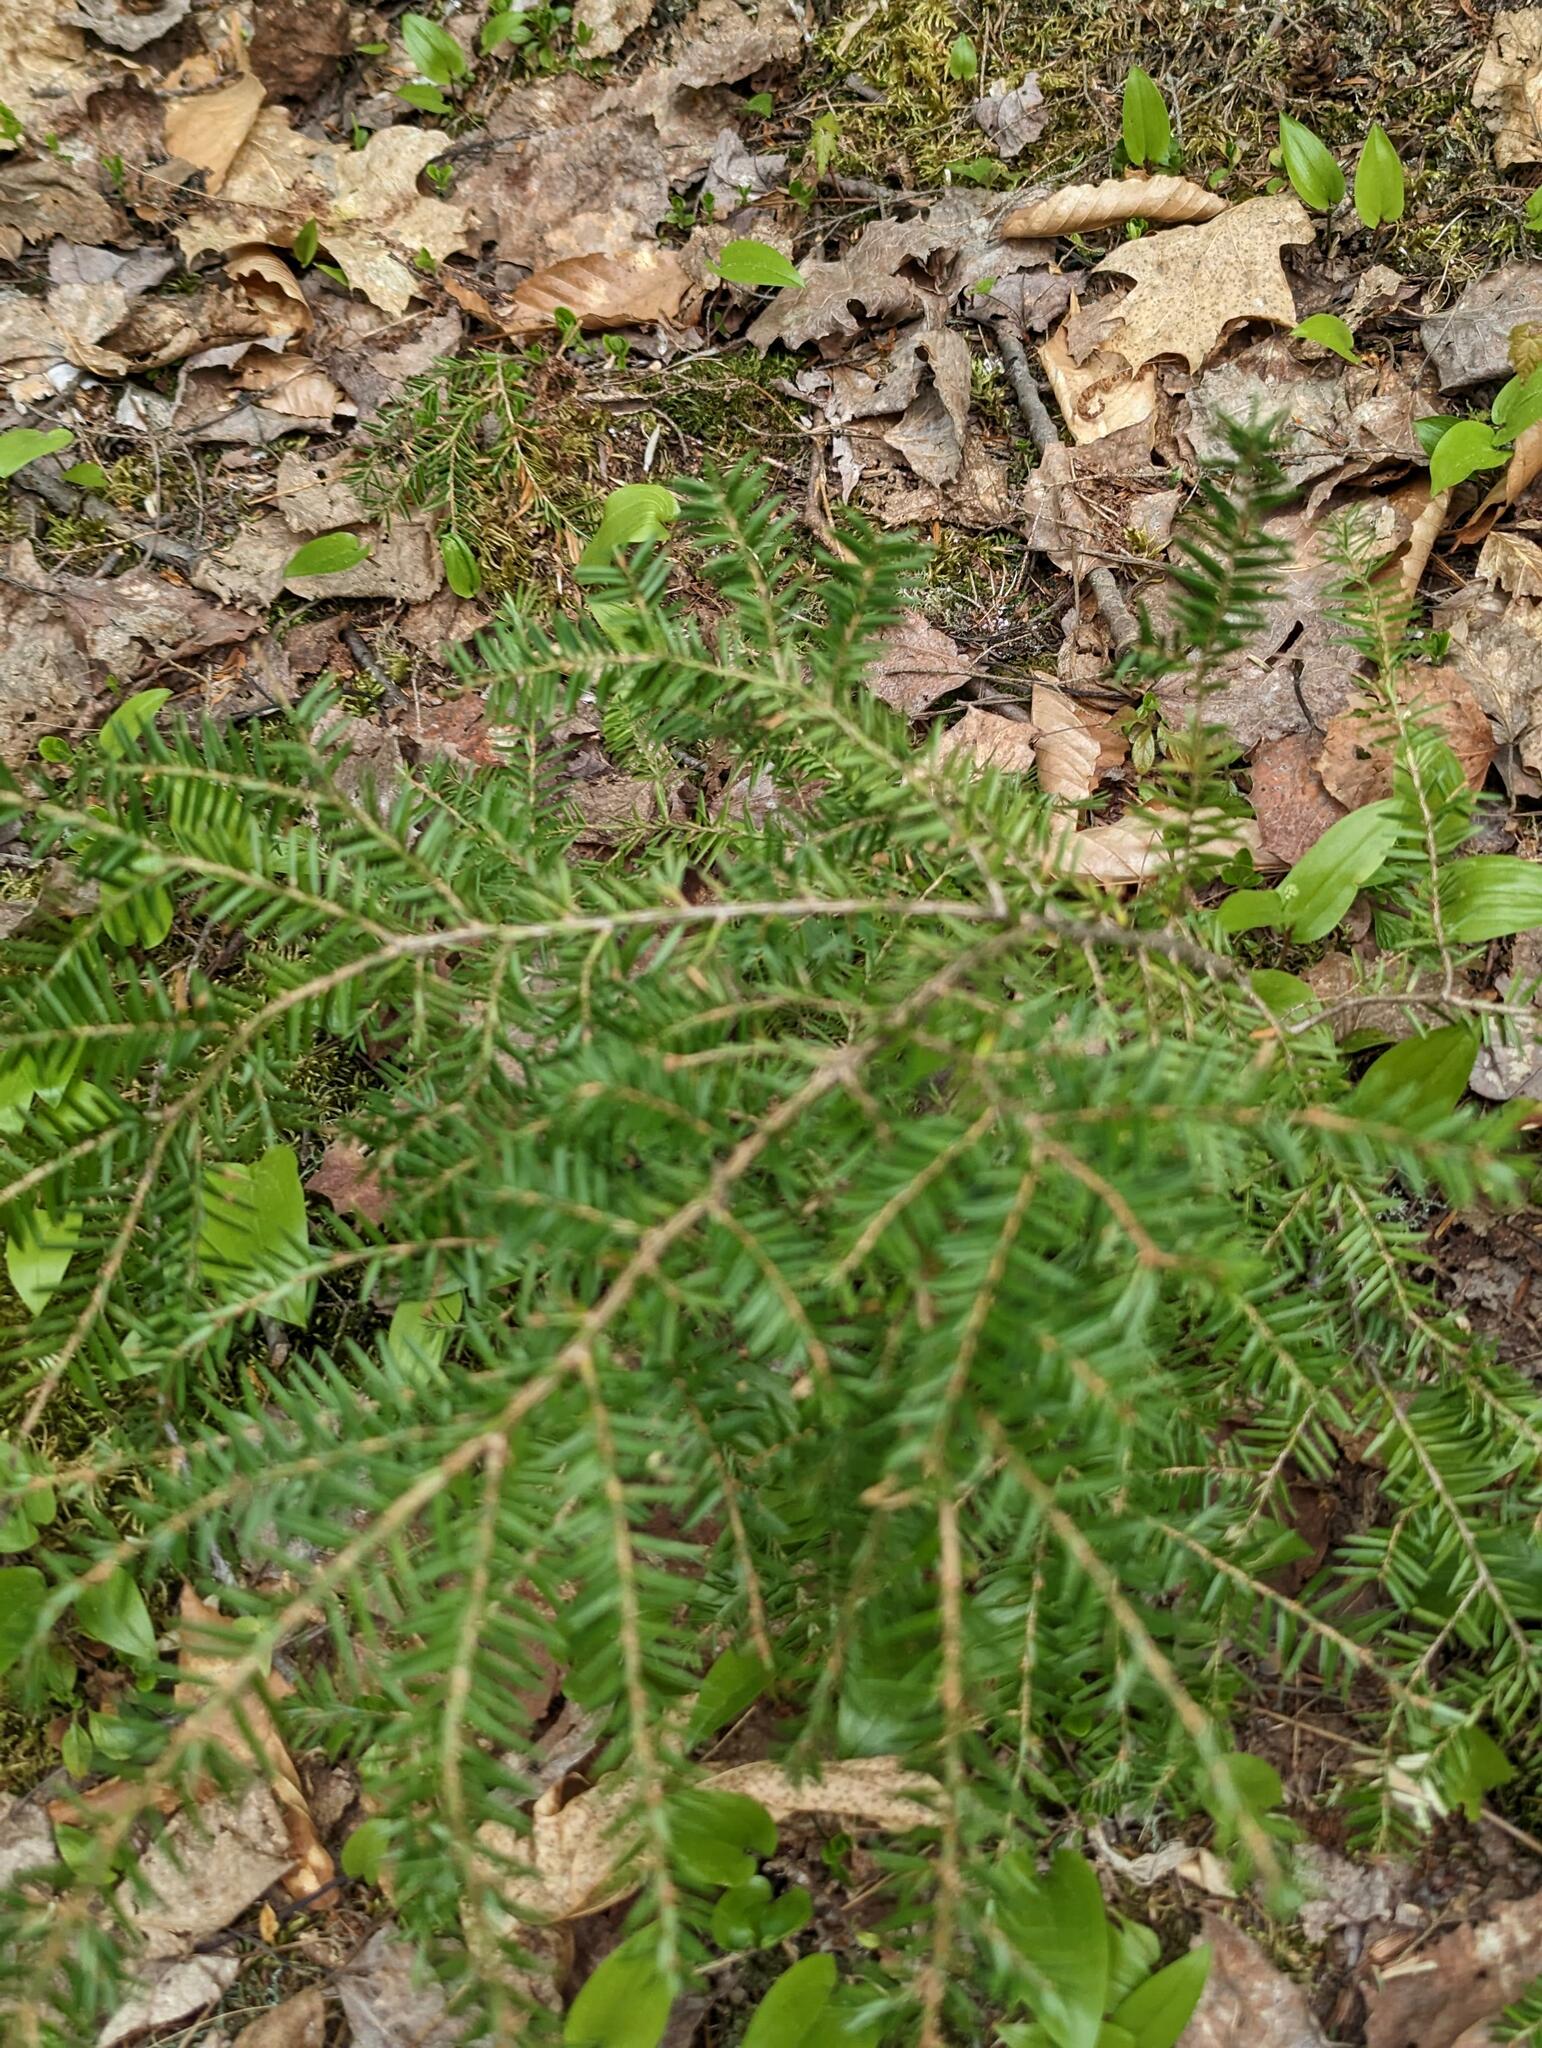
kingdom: Plantae
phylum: Tracheophyta
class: Pinopsida
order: Pinales
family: Pinaceae
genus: Tsuga
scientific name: Tsuga canadensis
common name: Eastern hemlock
